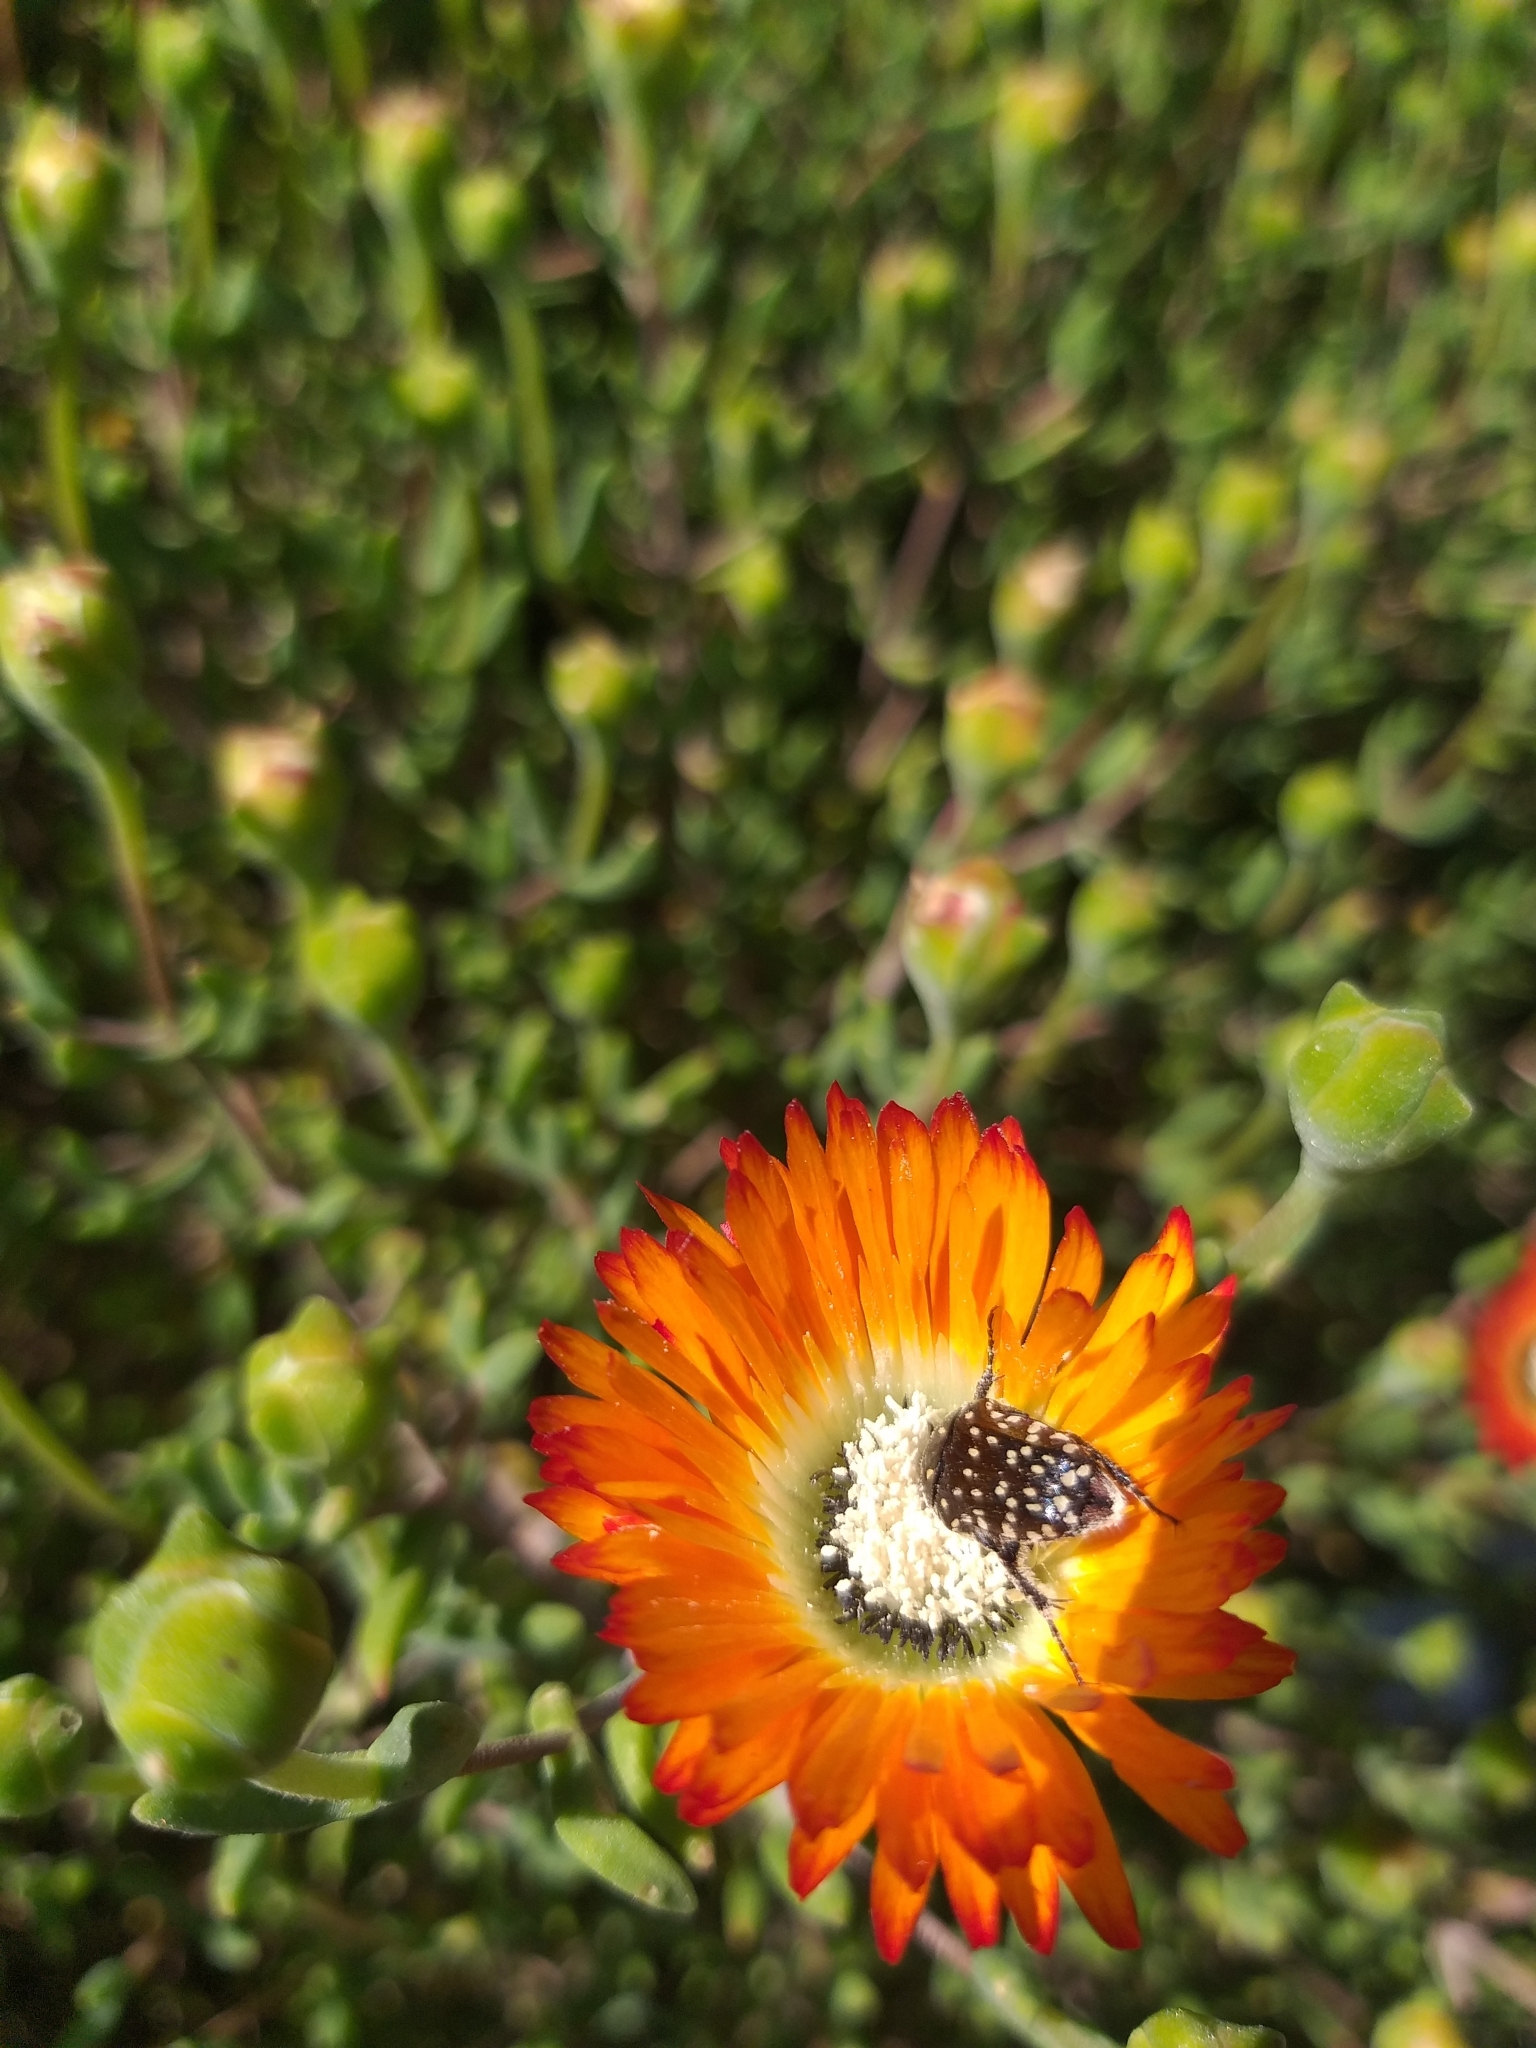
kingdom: Animalia
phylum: Arthropoda
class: Insecta
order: Coleoptera
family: Scarabaeidae
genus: Oxythyrea
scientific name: Oxythyrea
